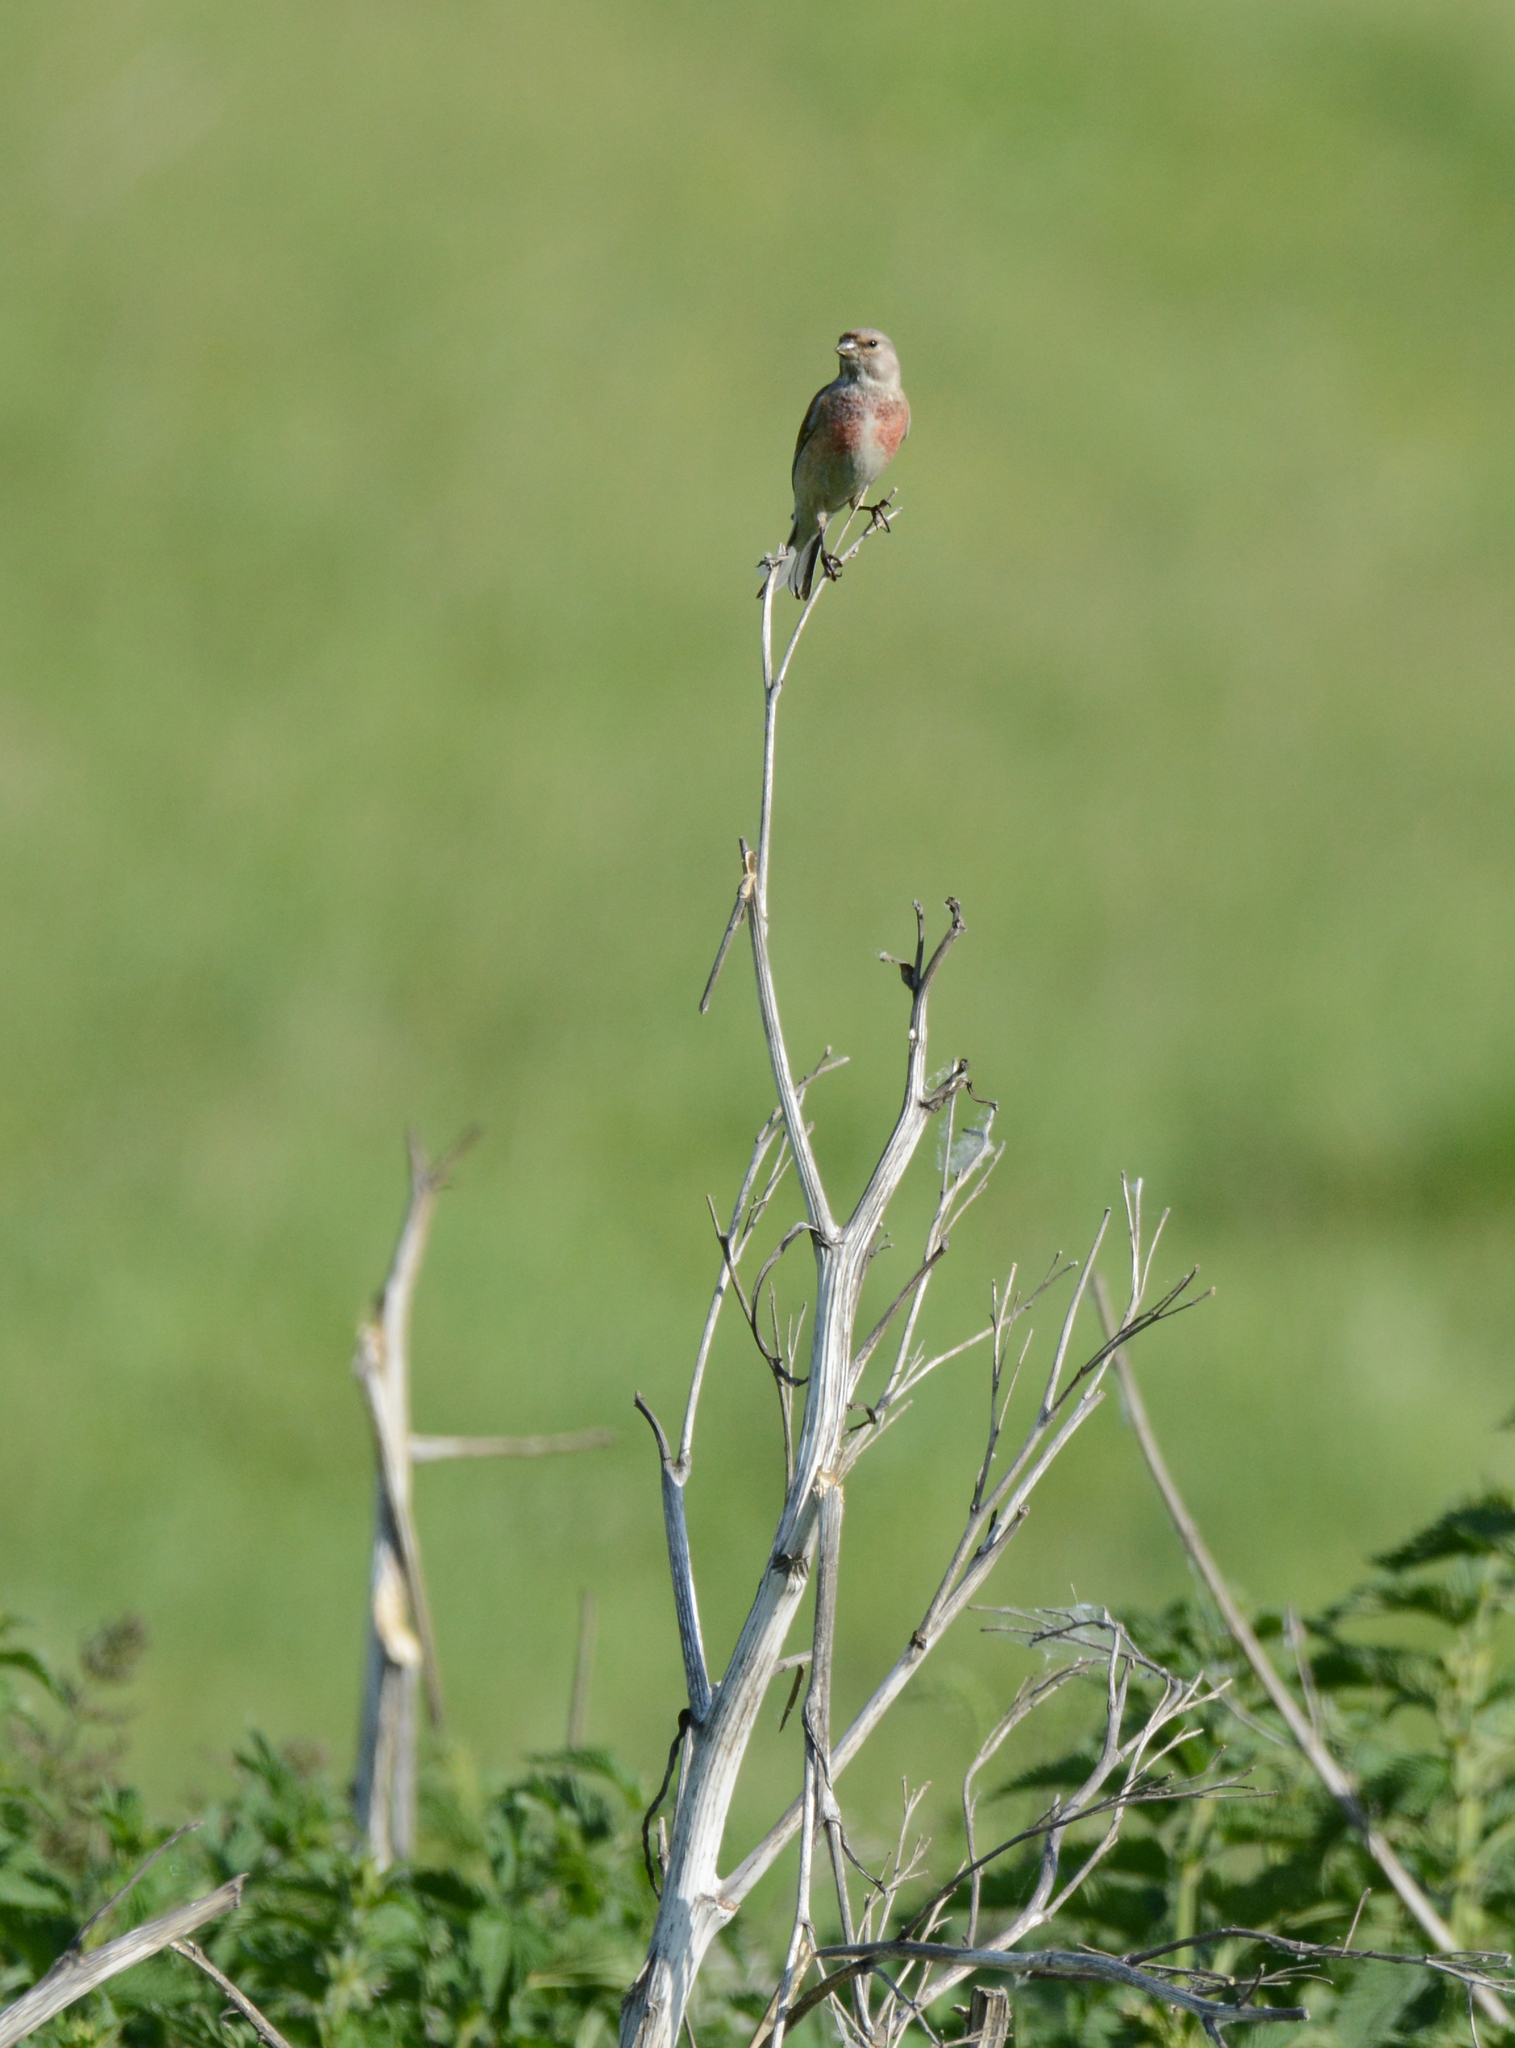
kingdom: Animalia
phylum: Chordata
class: Aves
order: Passeriformes
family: Fringillidae
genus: Linaria
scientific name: Linaria cannabina
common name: Common linnet
